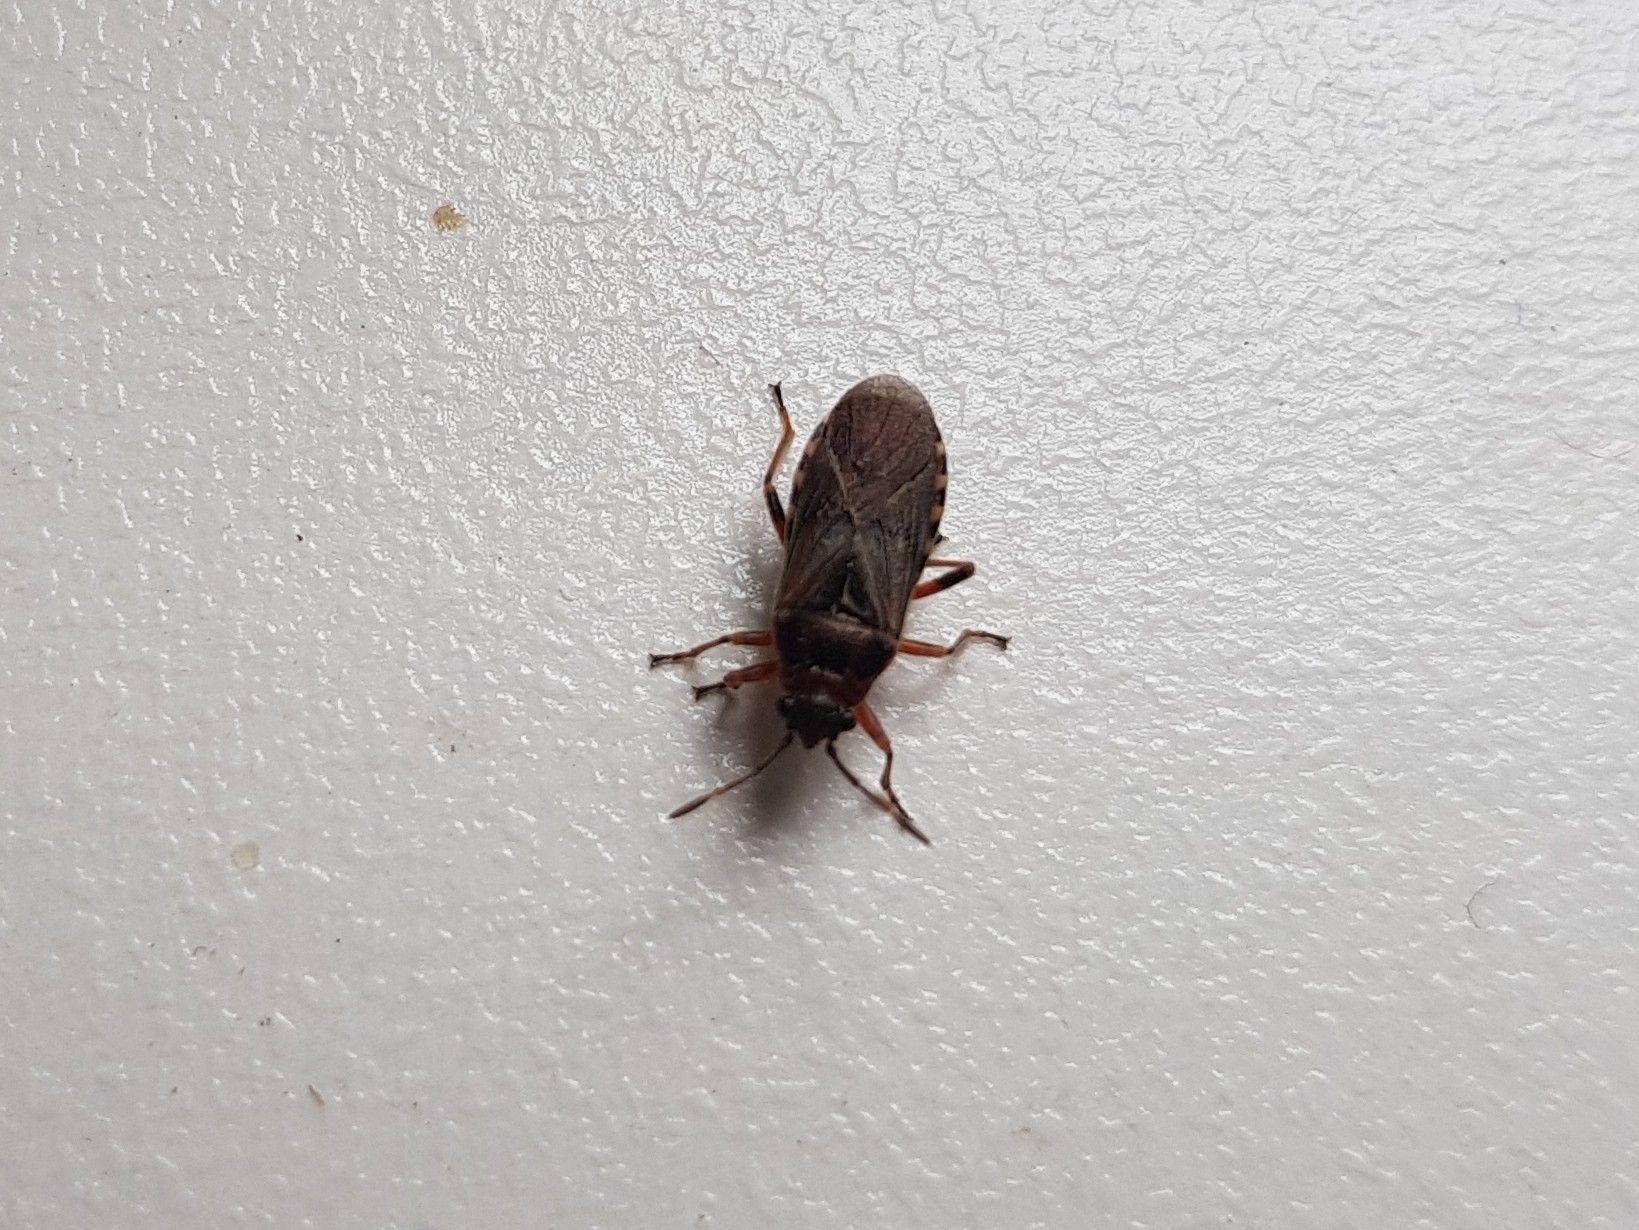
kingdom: Animalia
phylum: Arthropoda
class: Insecta
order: Hemiptera
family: Lygaeidae
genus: Arocatus
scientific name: Arocatus melanocephalus
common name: Lygaeid bug
